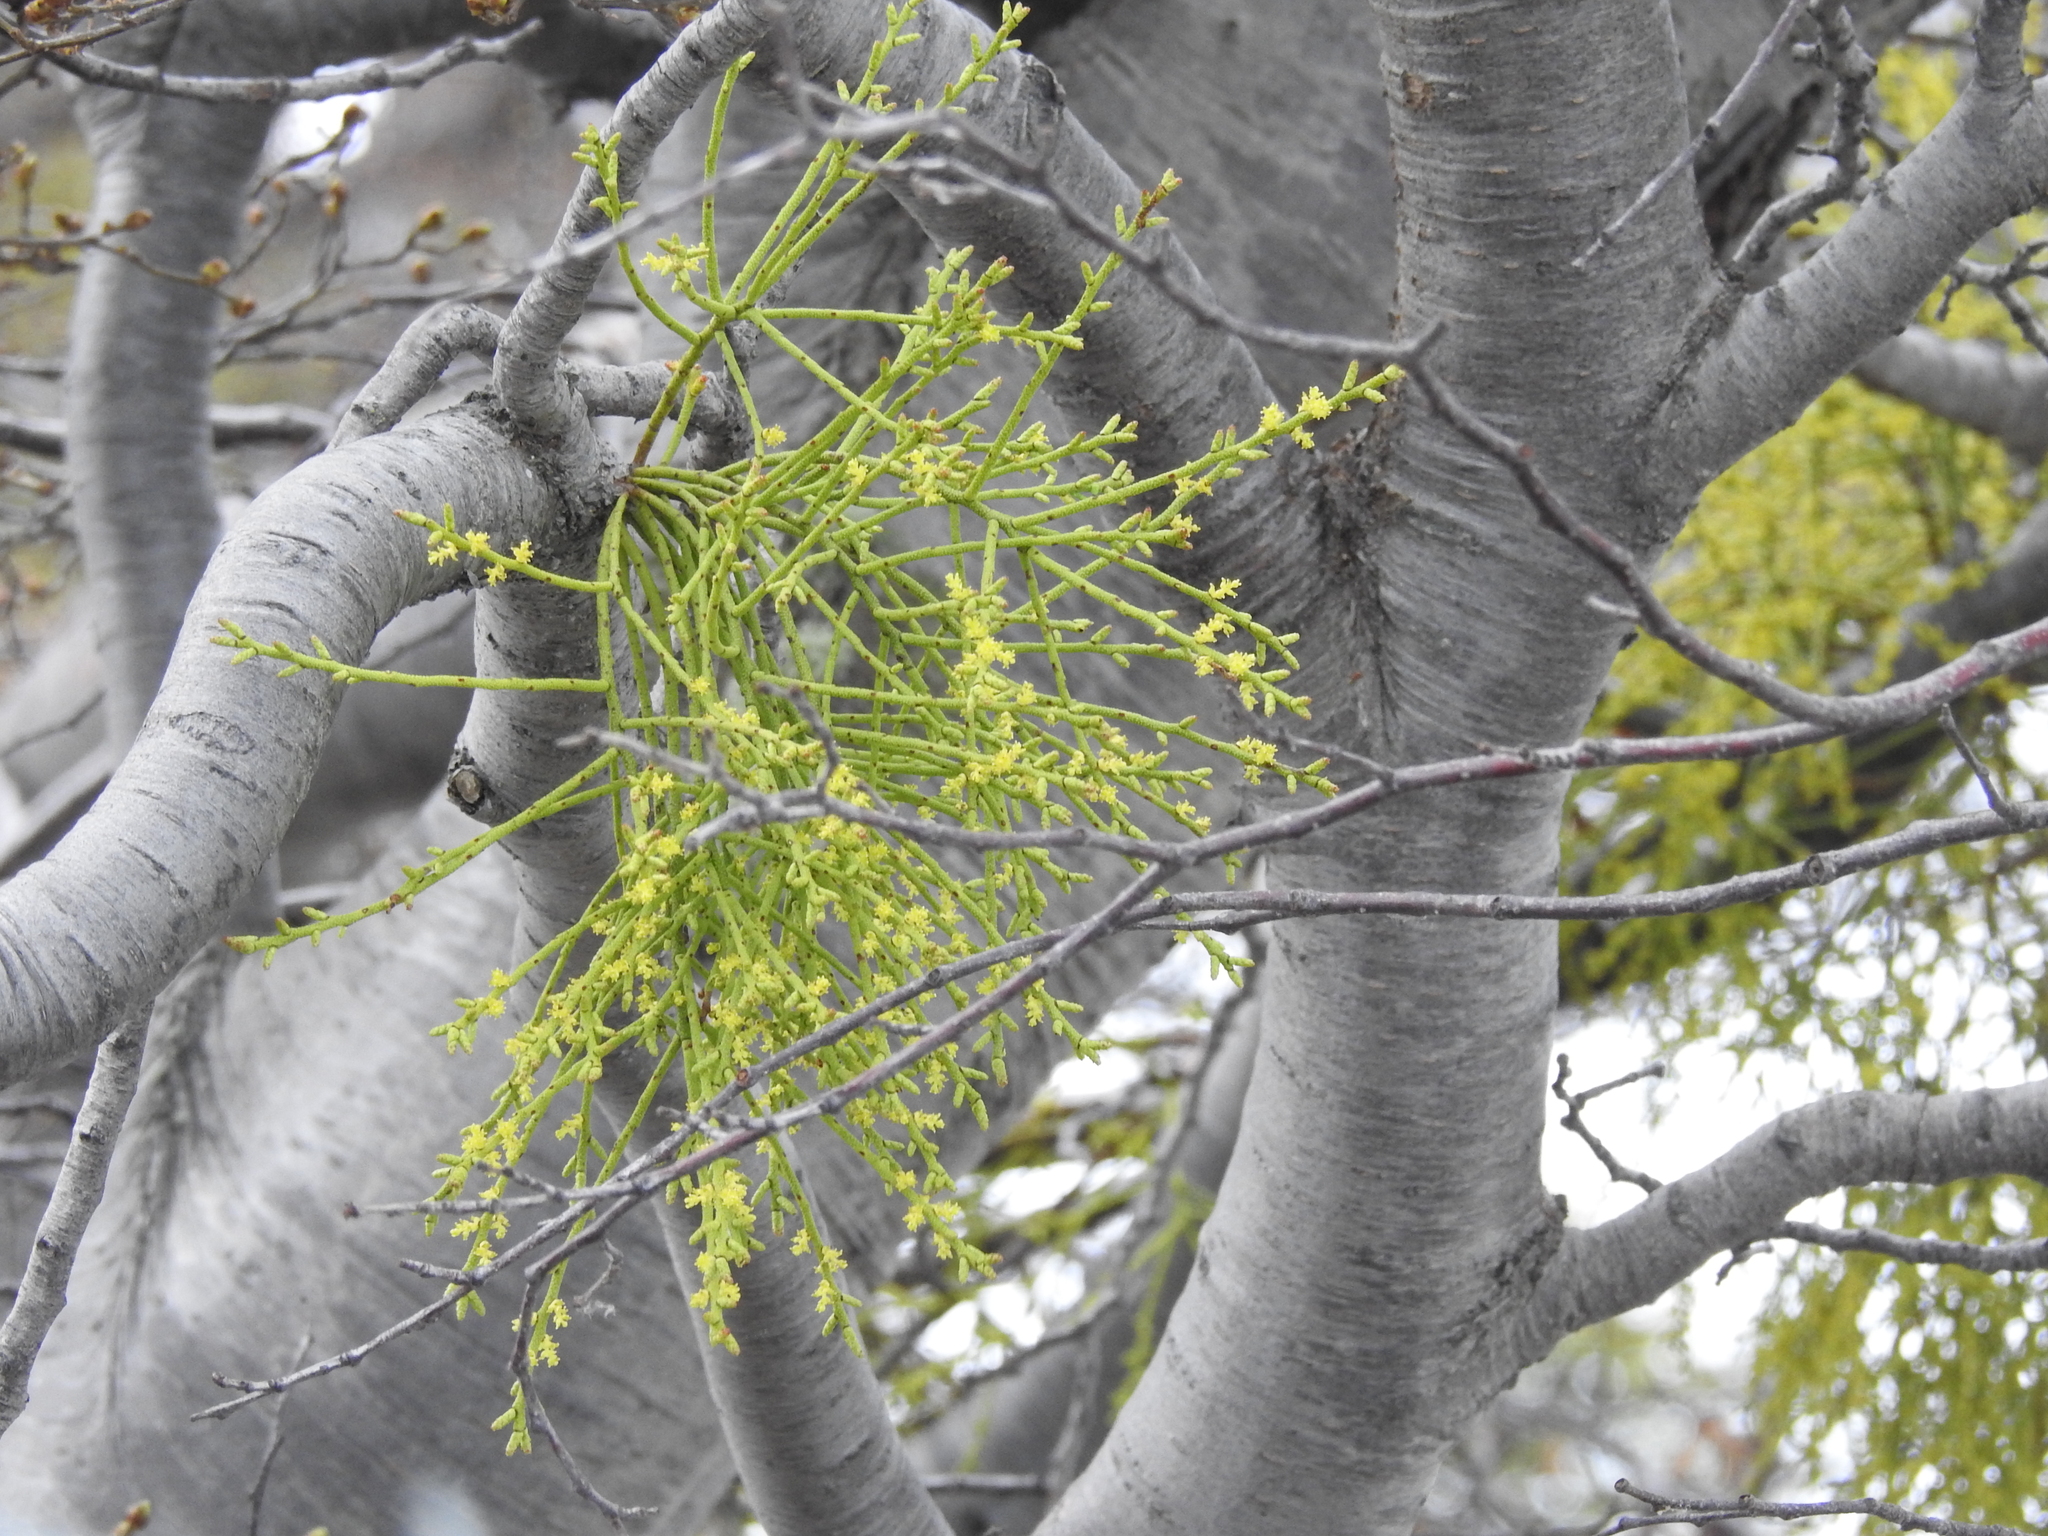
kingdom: Plantae
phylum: Tracheophyta
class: Magnoliopsida
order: Santalales
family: Misodendraceae
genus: Misodendrum
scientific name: Misodendrum punctulatum
